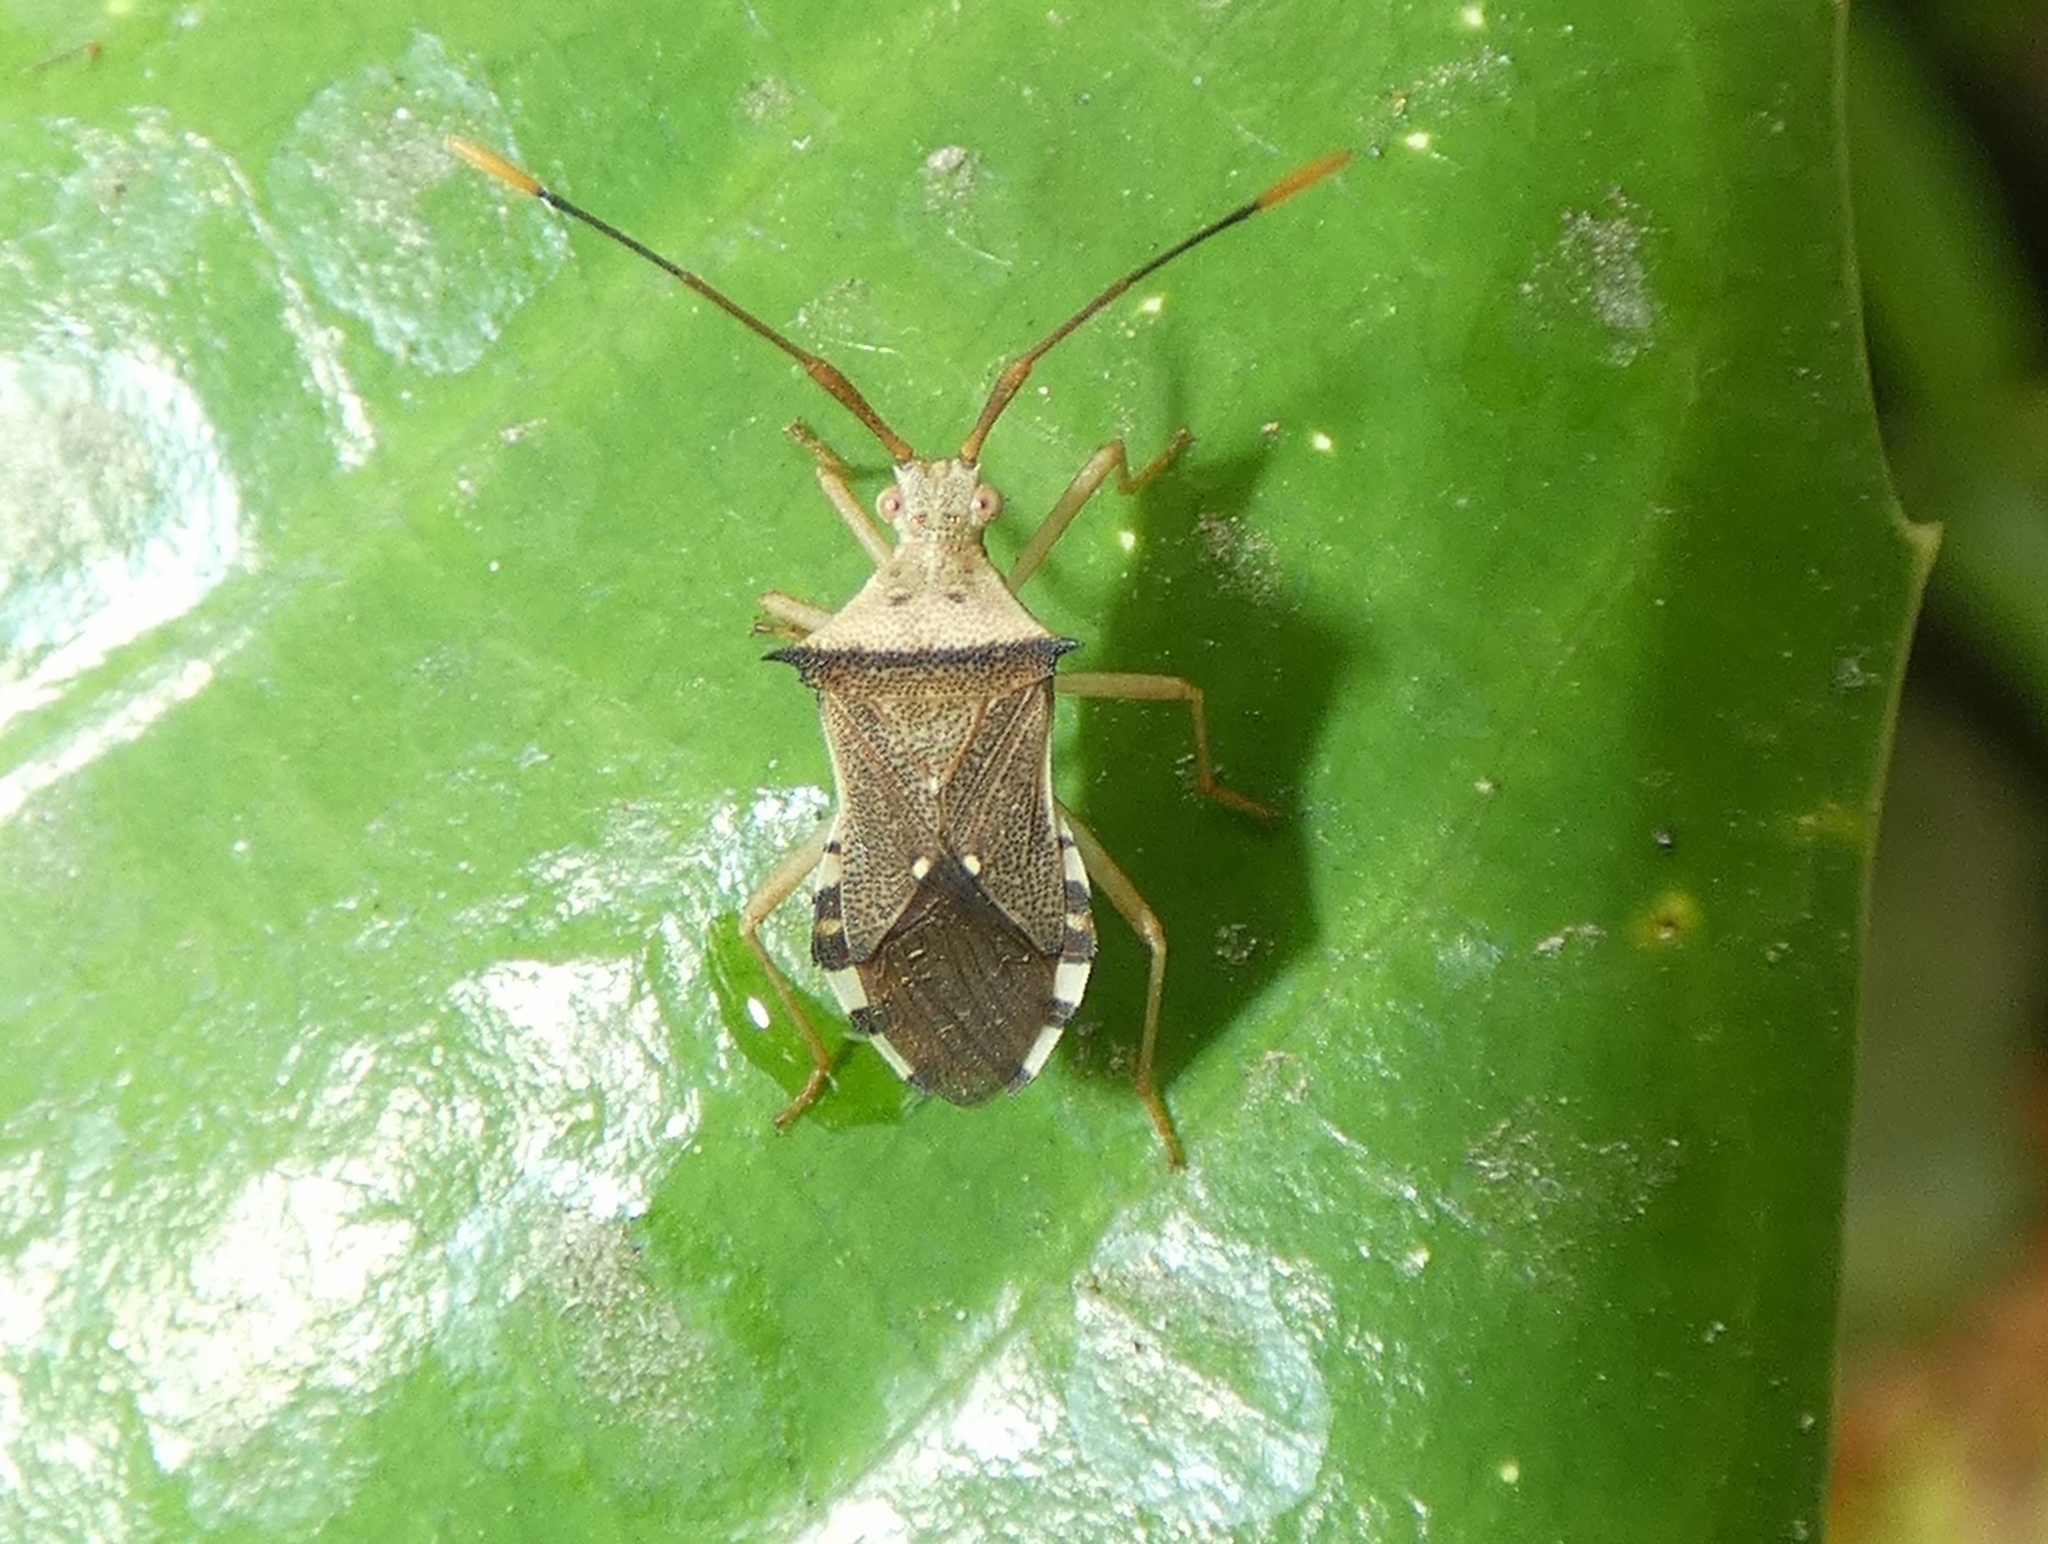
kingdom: Animalia
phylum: Arthropoda
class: Insecta
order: Hemiptera
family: Coreidae
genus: Cletomorpha
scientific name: Cletomorpha denticulata
